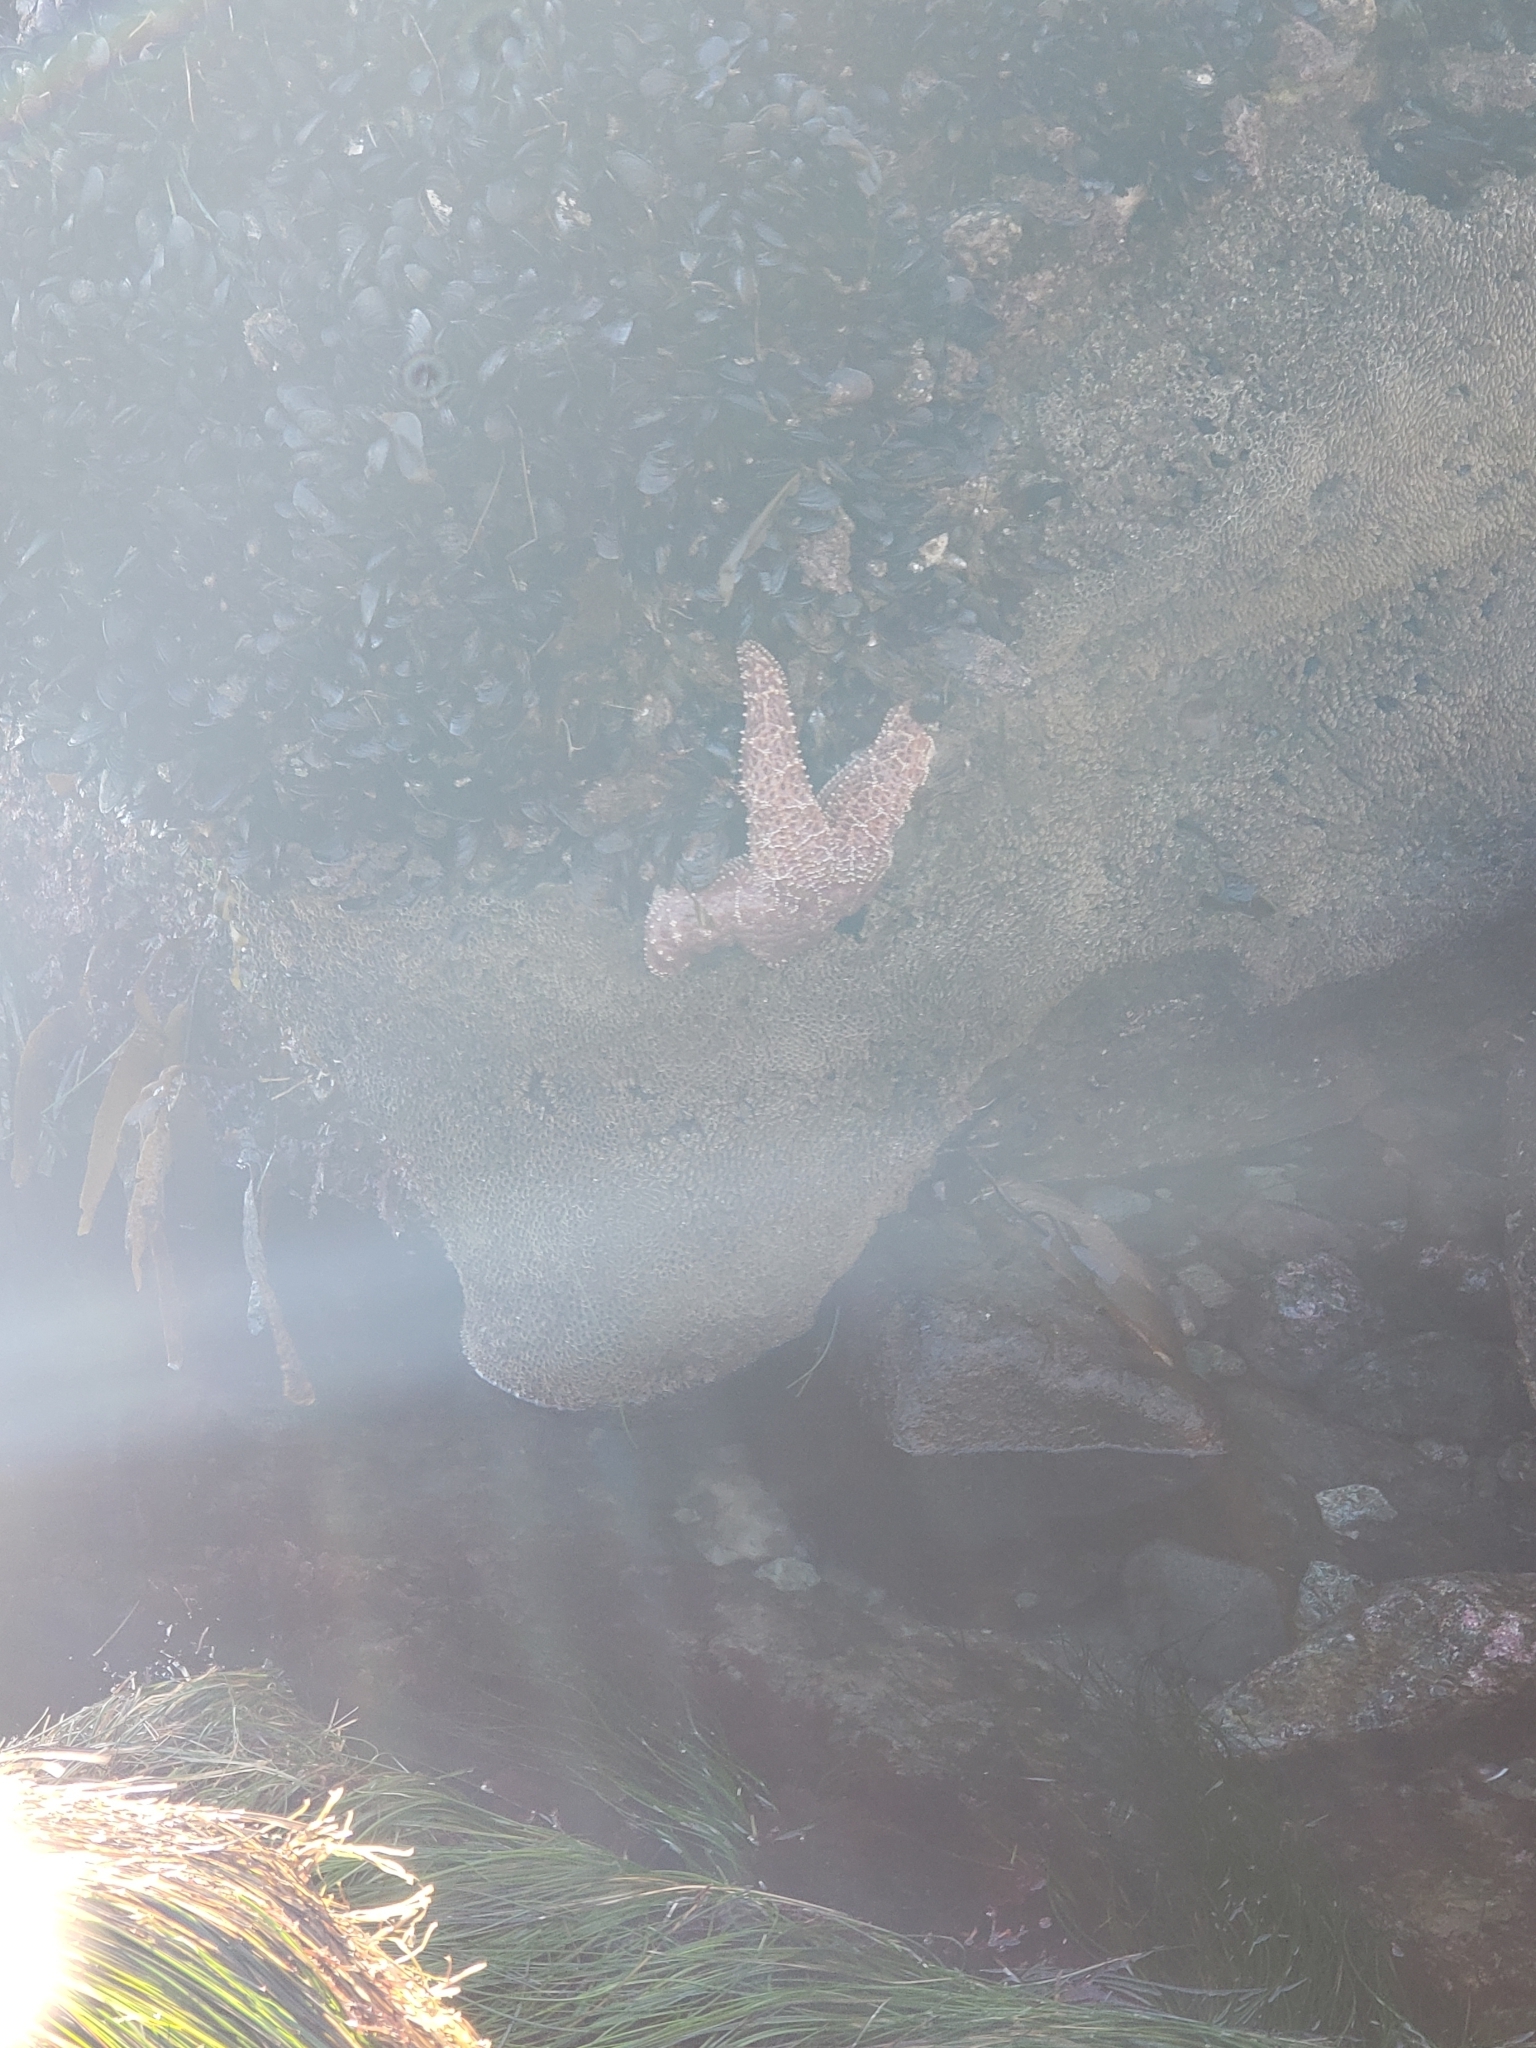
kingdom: Animalia
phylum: Echinodermata
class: Asteroidea
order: Forcipulatida
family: Asteriidae
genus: Pisaster
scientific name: Pisaster ochraceus
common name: Ochre stars
